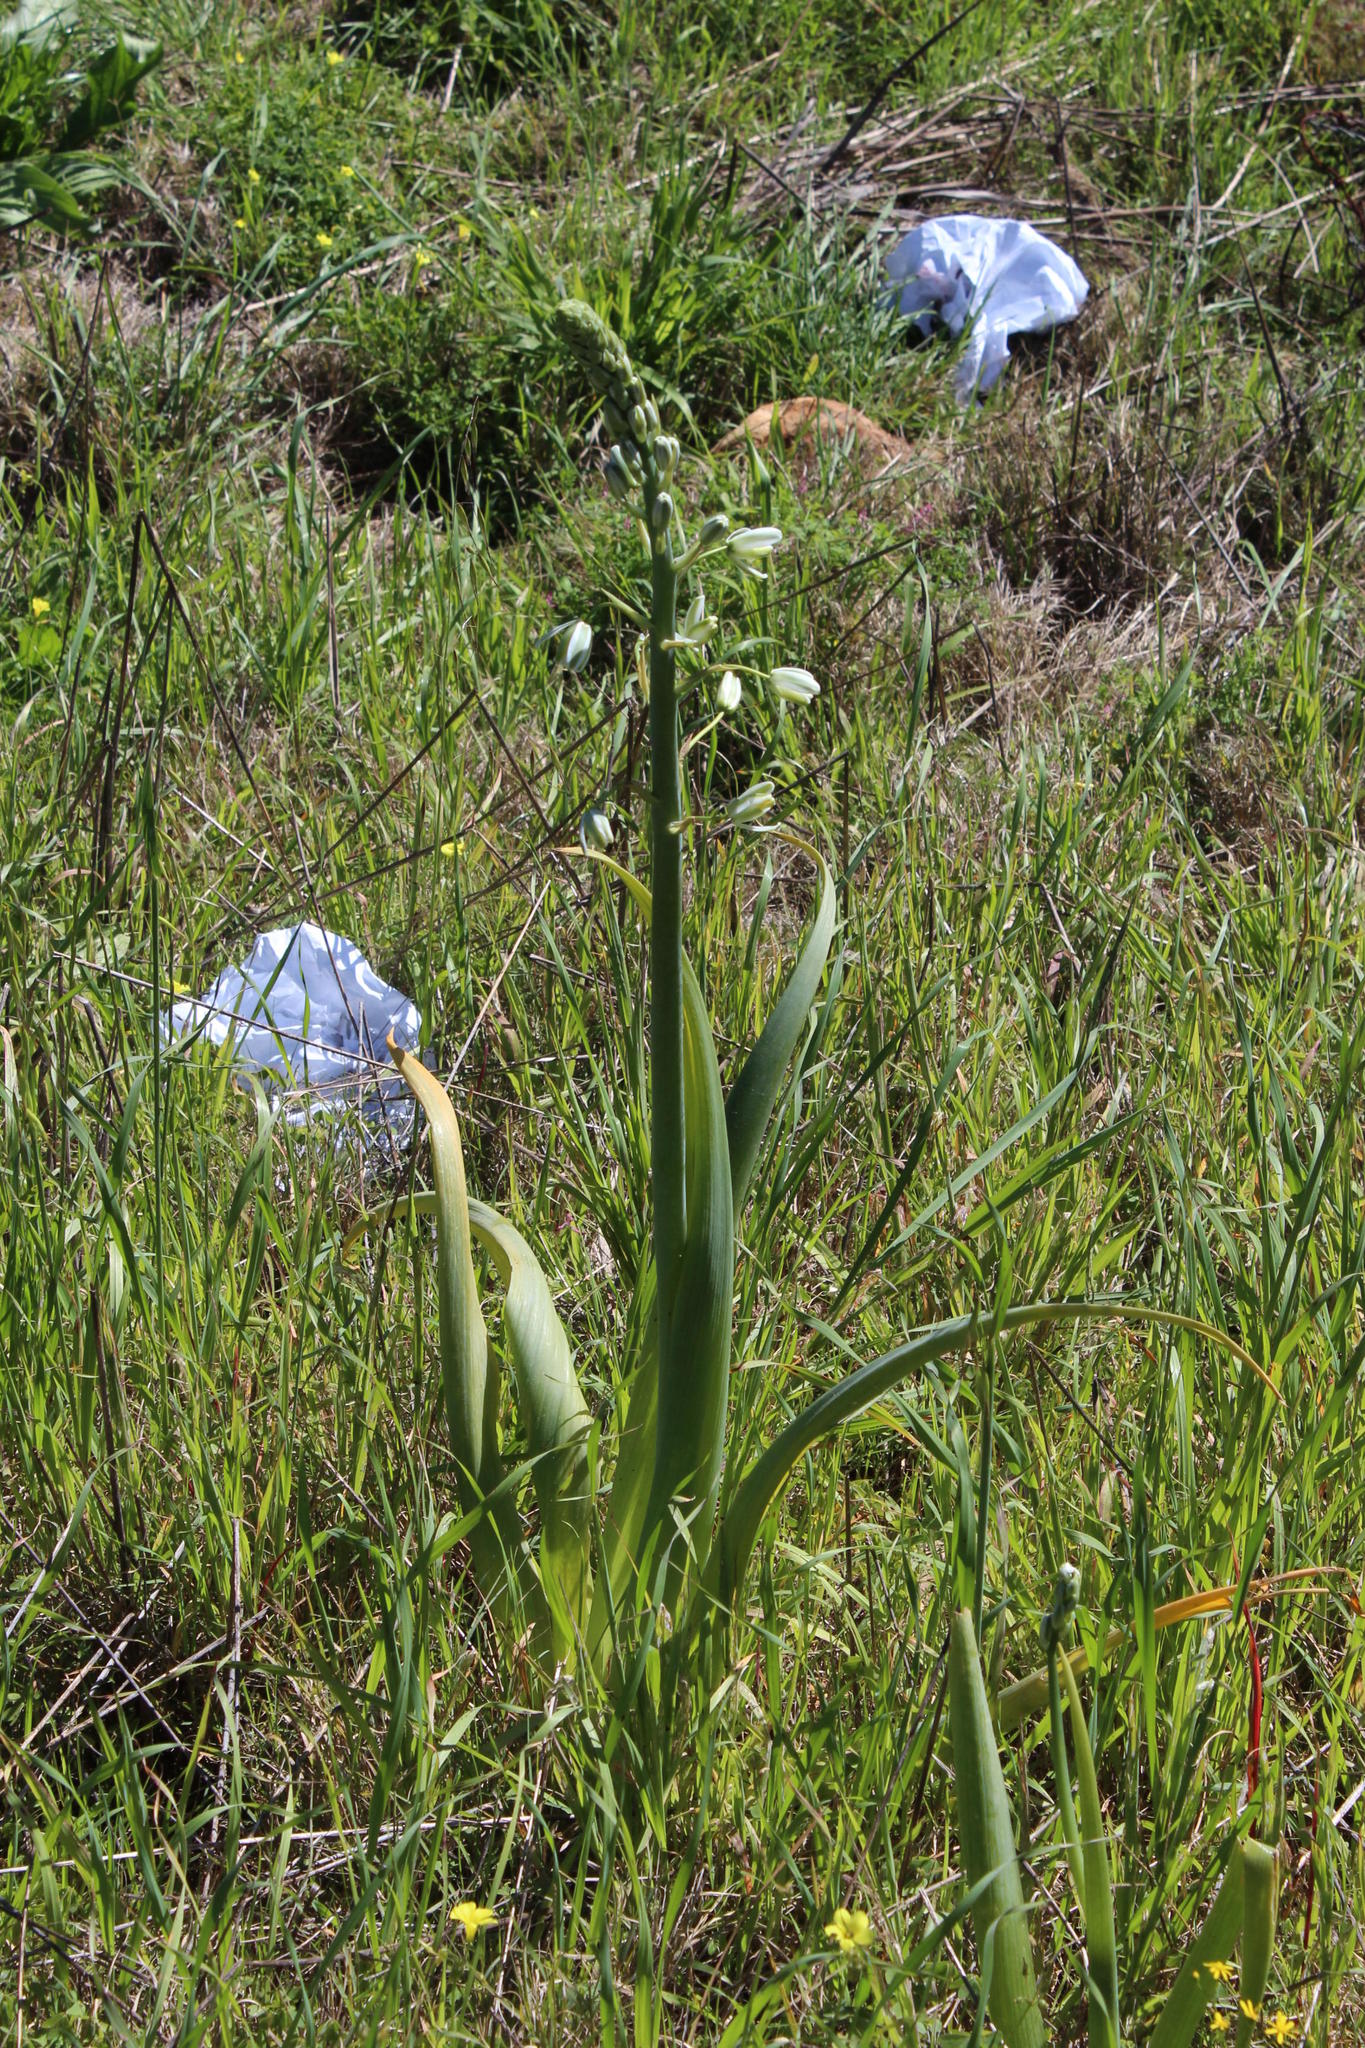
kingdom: Plantae
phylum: Tracheophyta
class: Liliopsida
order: Asparagales
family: Asparagaceae
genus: Albuca
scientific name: Albuca canadensis
